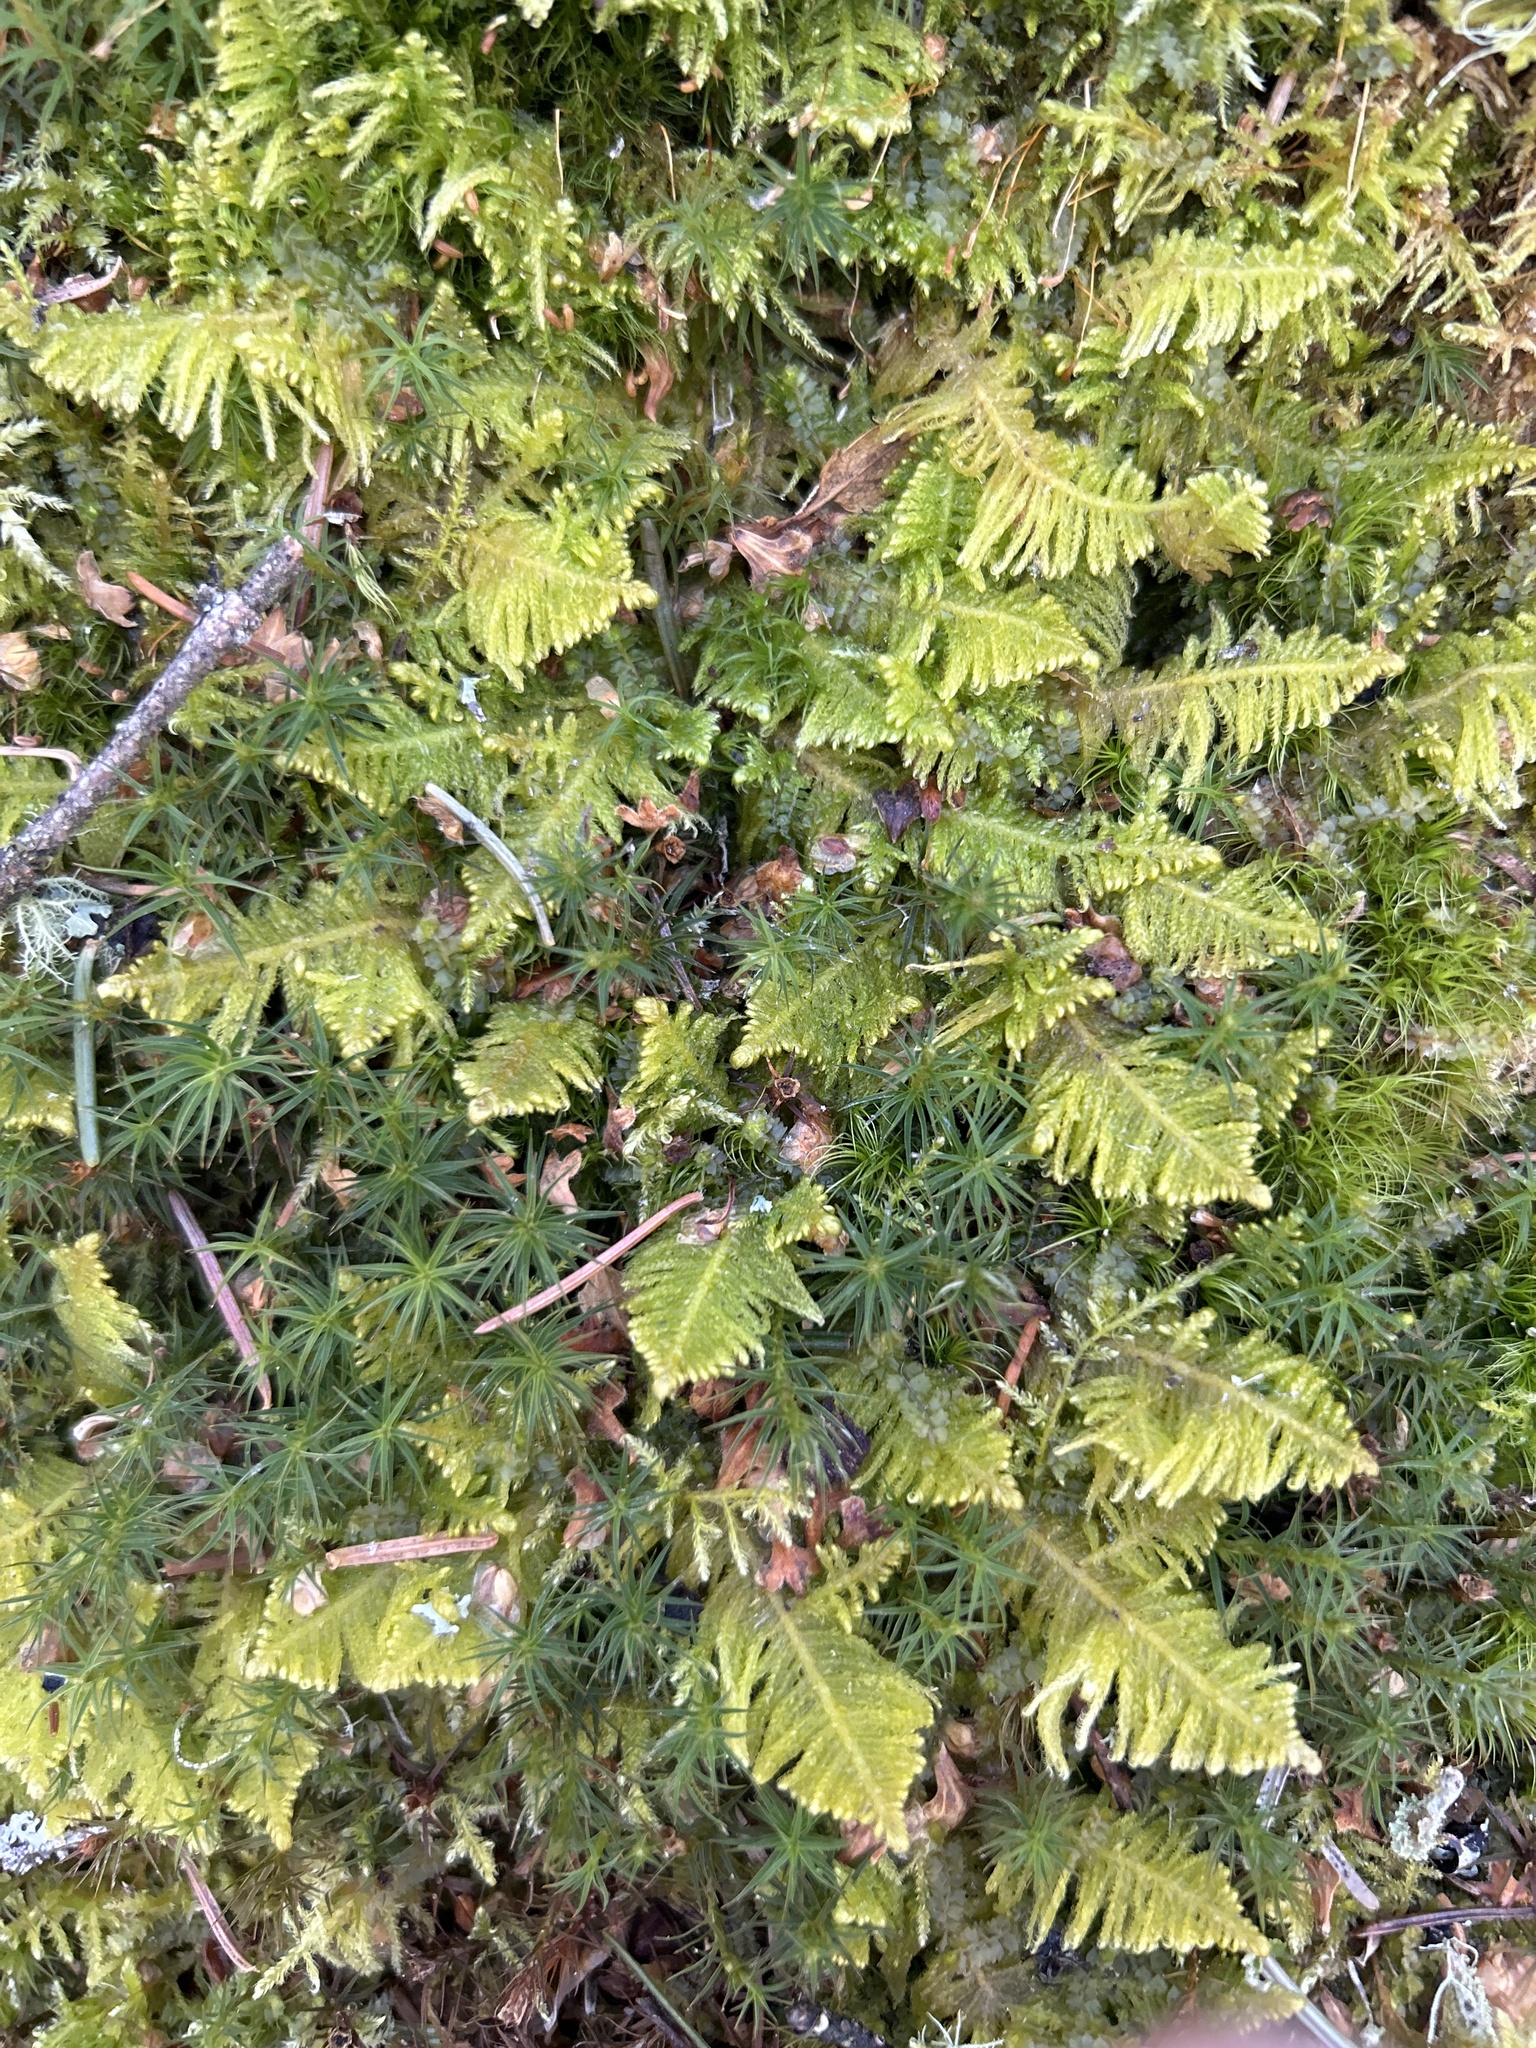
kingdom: Plantae
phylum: Bryophyta
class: Bryopsida
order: Hypnales
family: Pylaisiaceae
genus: Ptilium
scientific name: Ptilium crista-castrensis
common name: Knight's plume moss
